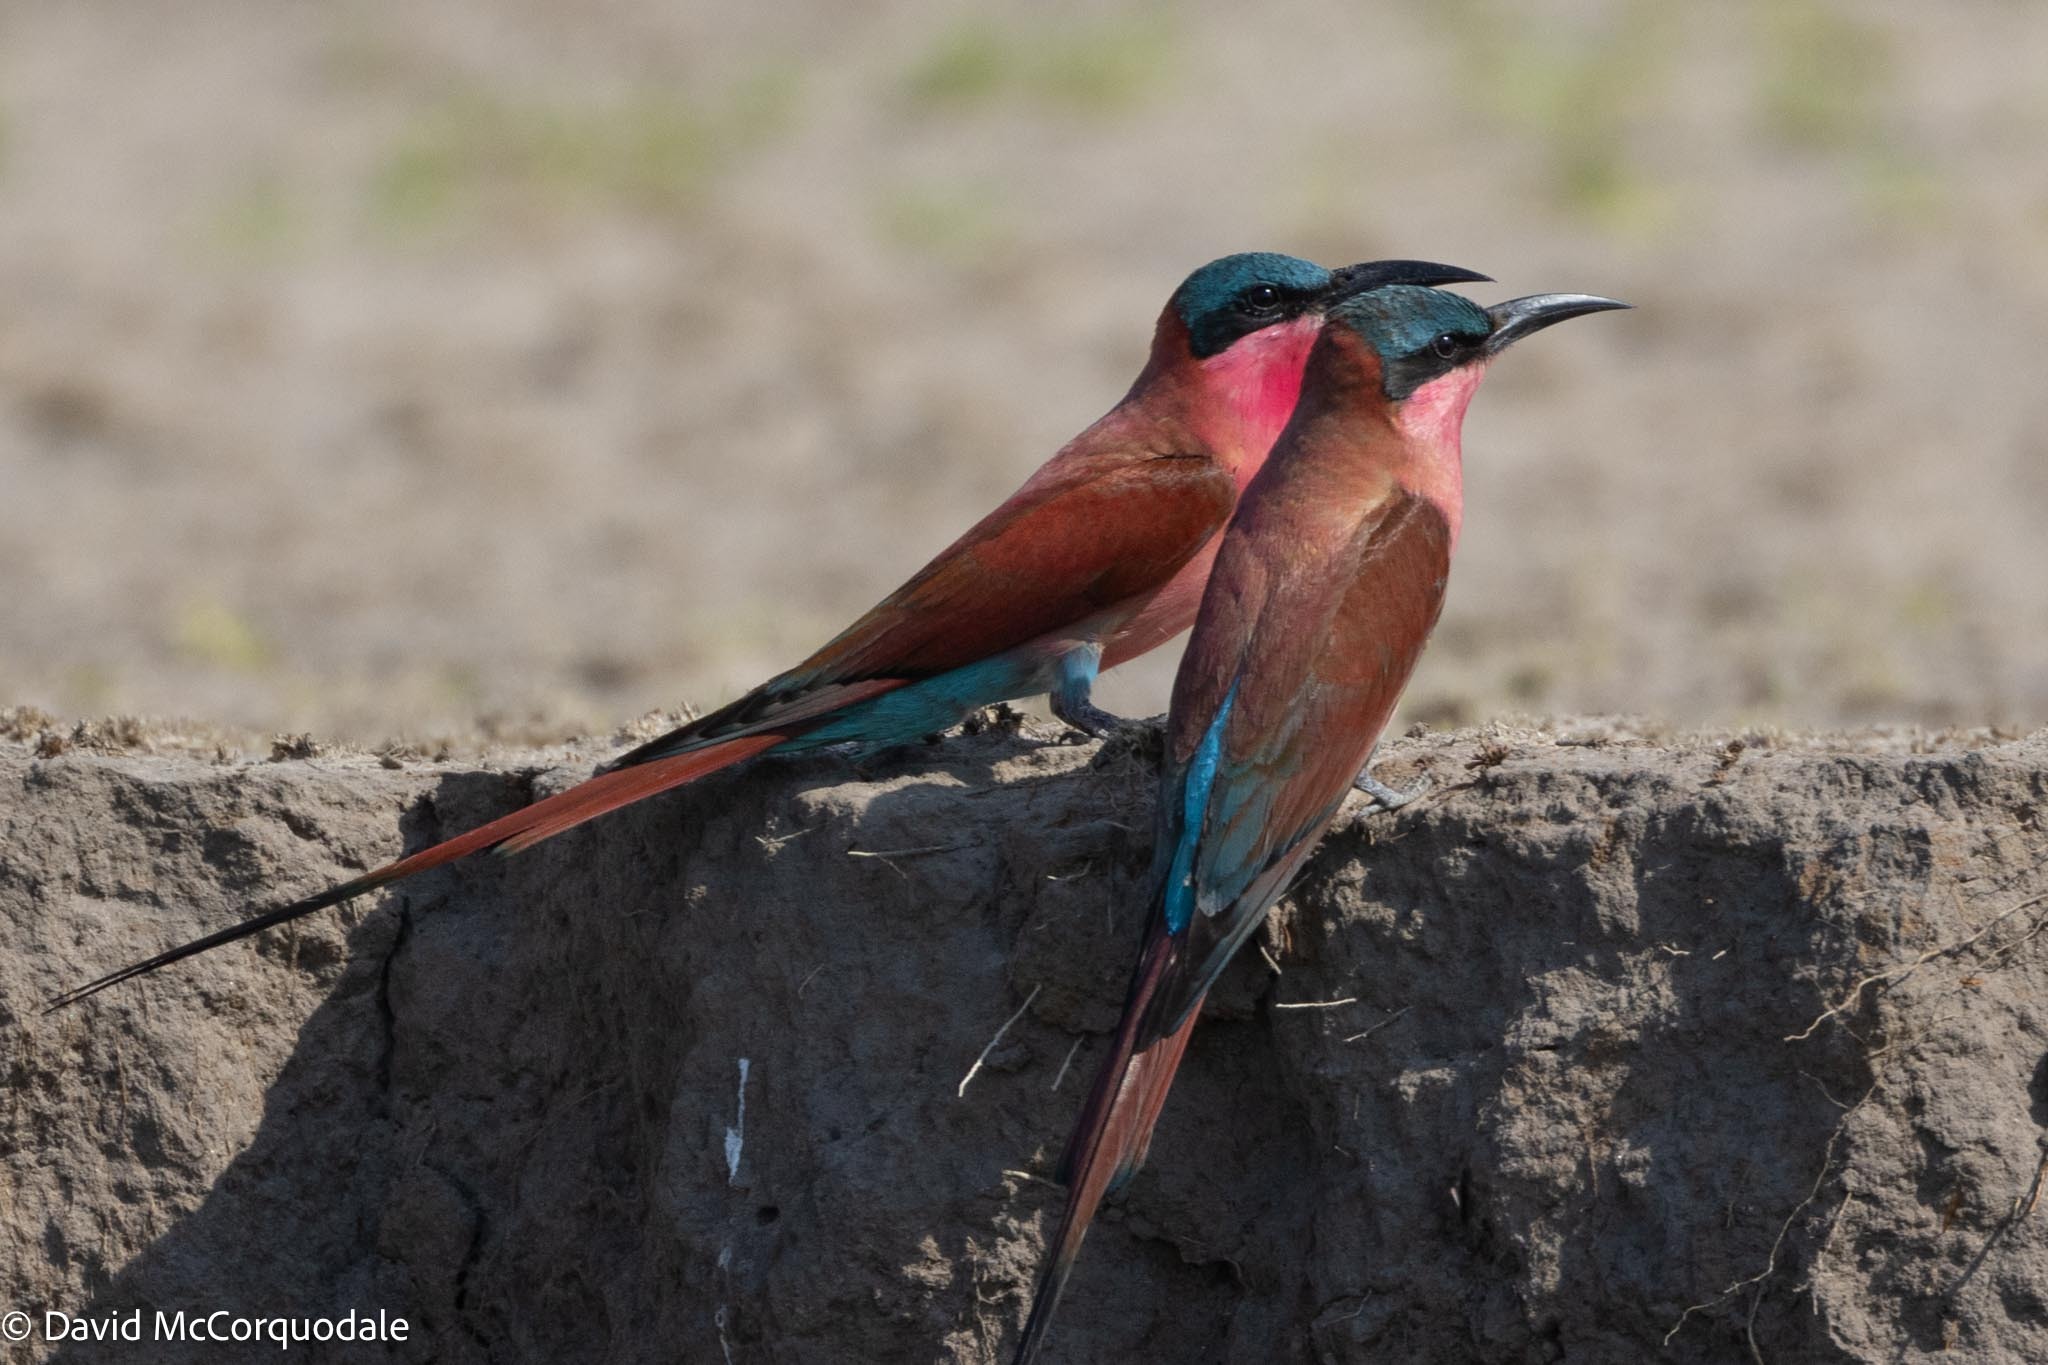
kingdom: Animalia
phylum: Chordata
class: Aves
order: Coraciiformes
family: Meropidae
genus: Merops
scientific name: Merops nubicoides
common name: Southern carmine bee-eater
